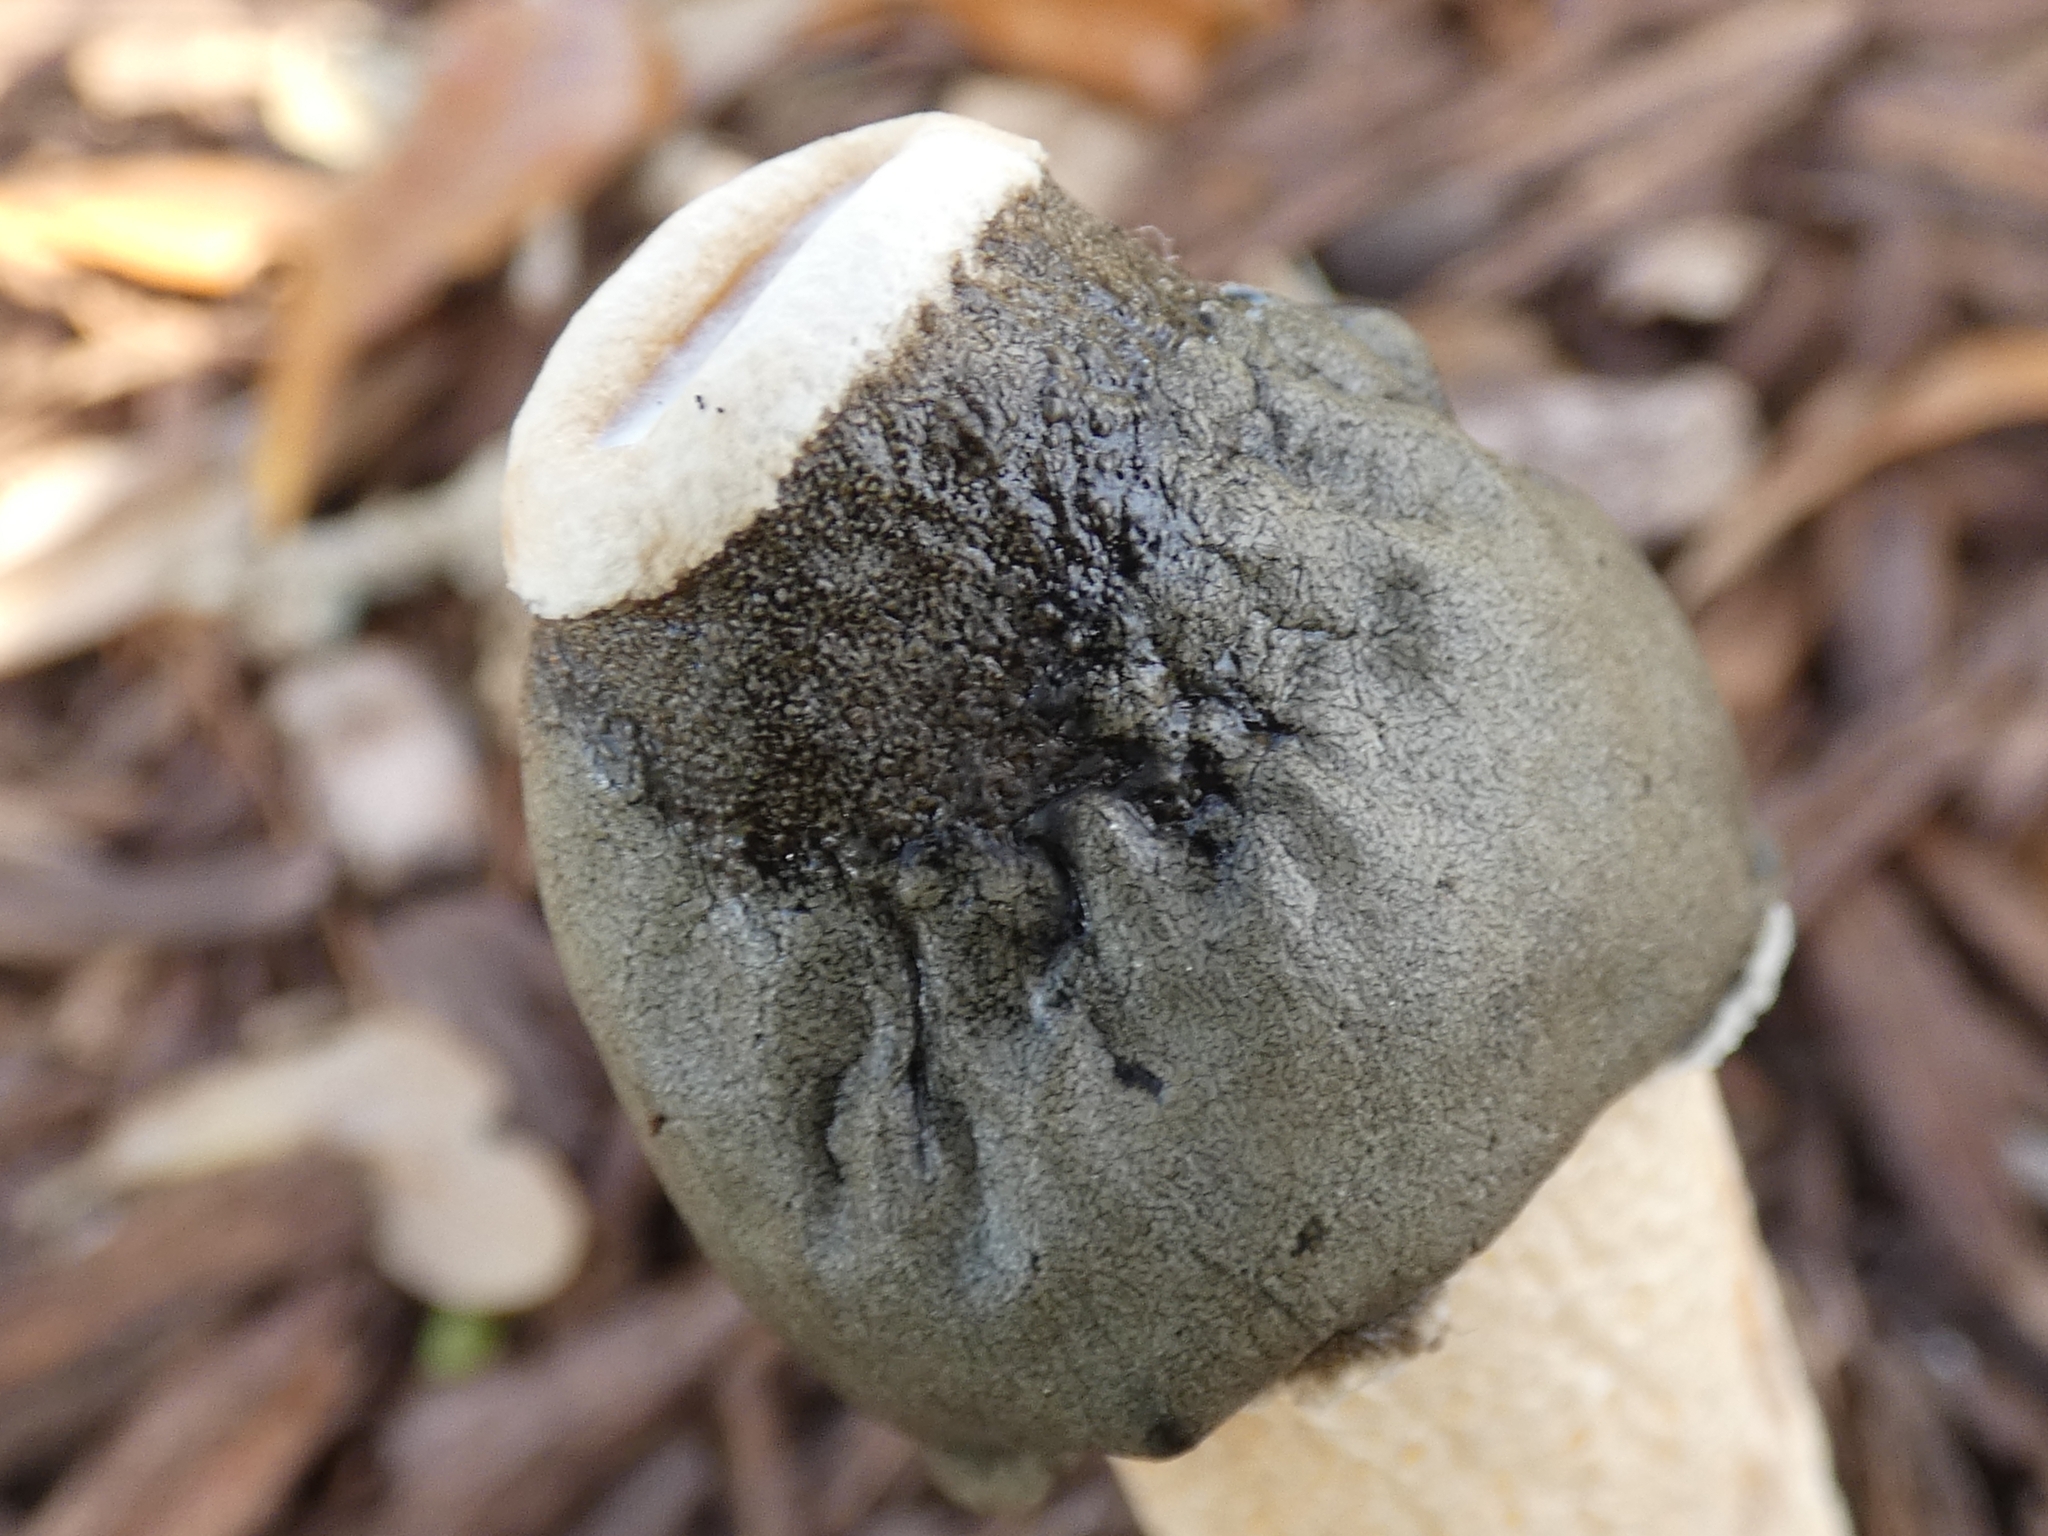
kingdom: Fungi
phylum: Basidiomycota
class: Agaricomycetes
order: Phallales
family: Phallaceae
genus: Phallus
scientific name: Phallus ravenelii
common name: Ravenel's stinkhorn
